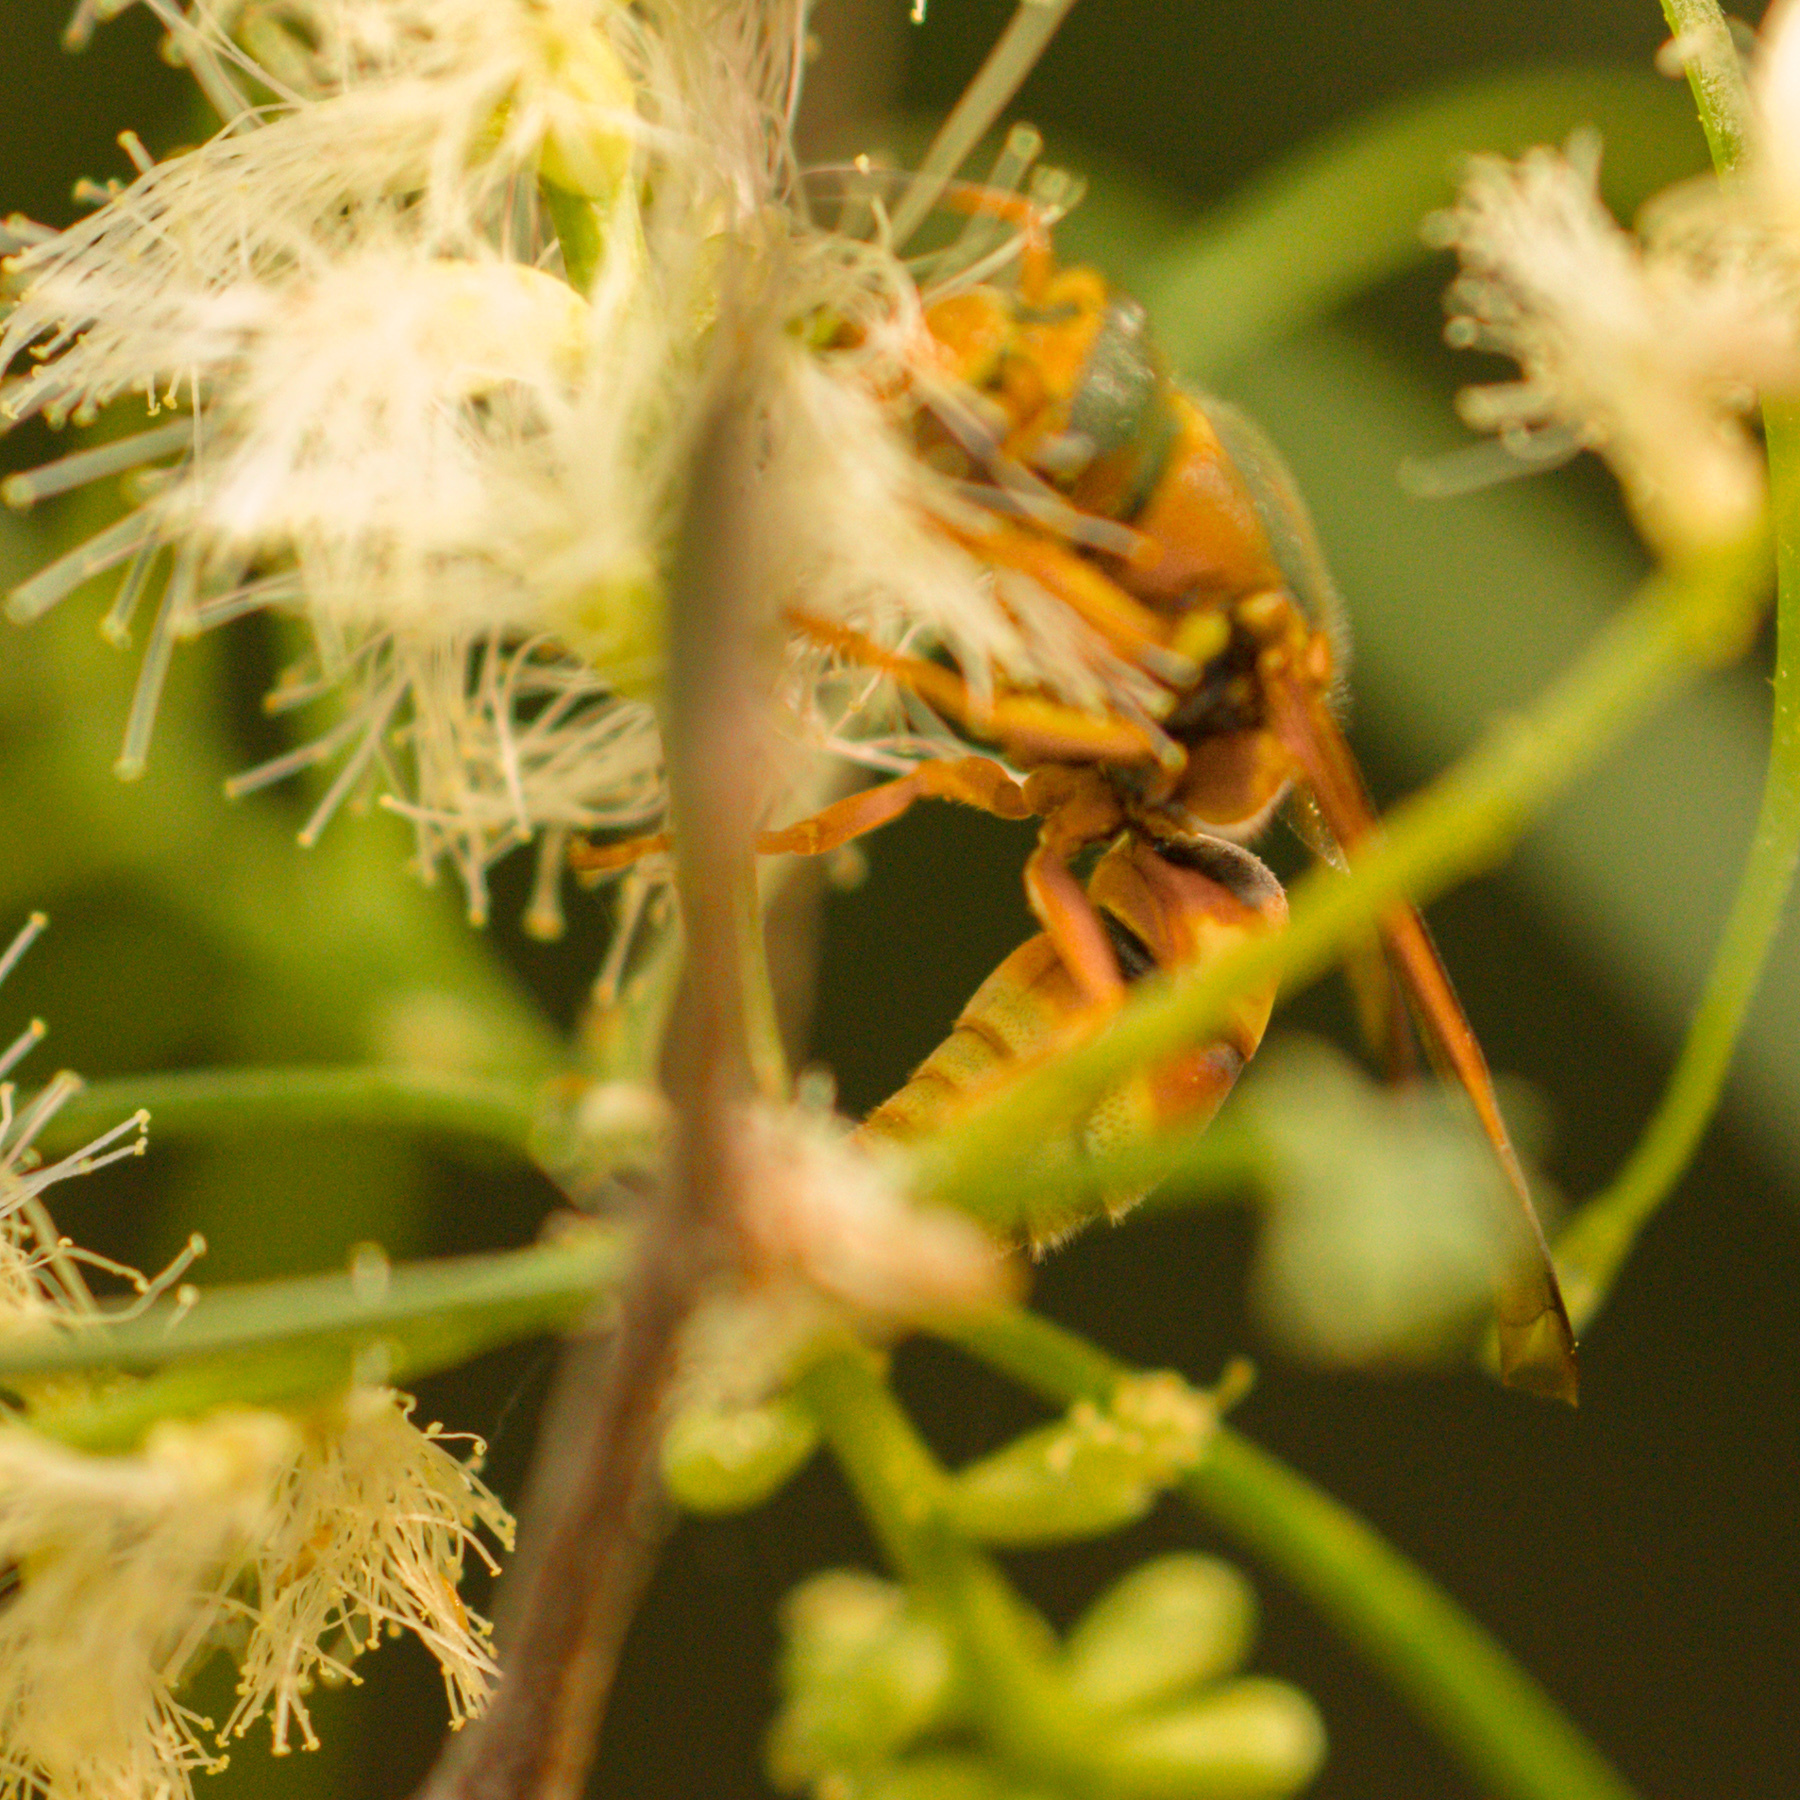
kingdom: Animalia
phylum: Arthropoda
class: Insecta
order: Hymenoptera
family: Eumenidae
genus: Euodynerus
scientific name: Euodynerus pratensis
